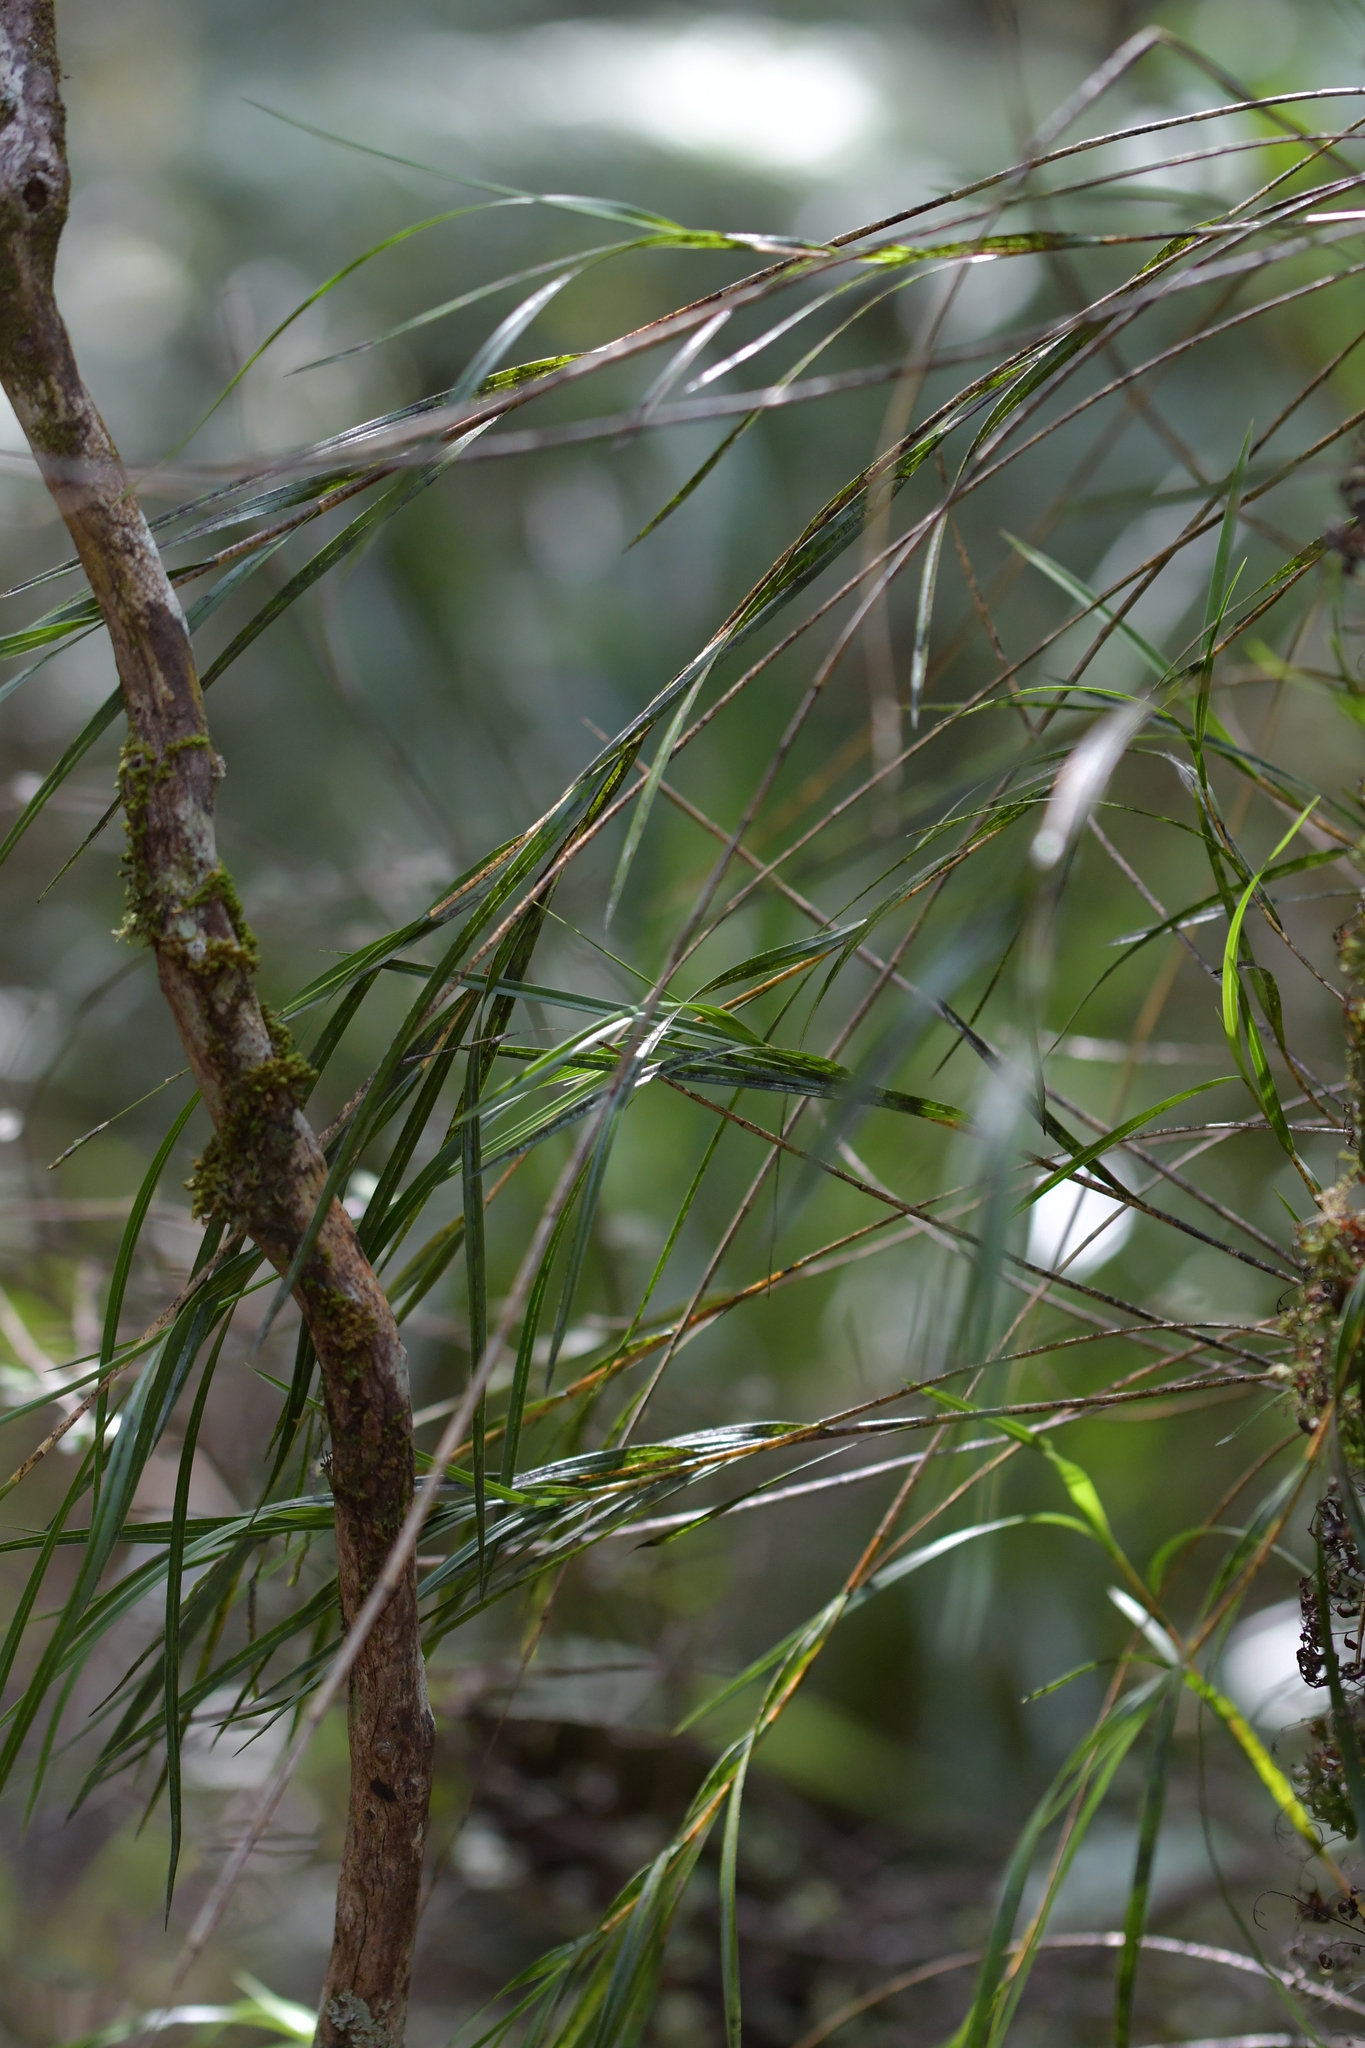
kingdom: Plantae
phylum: Tracheophyta
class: Liliopsida
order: Asparagales
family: Orchidaceae
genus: Dendrobium
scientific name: Dendrobium cunninghamii
